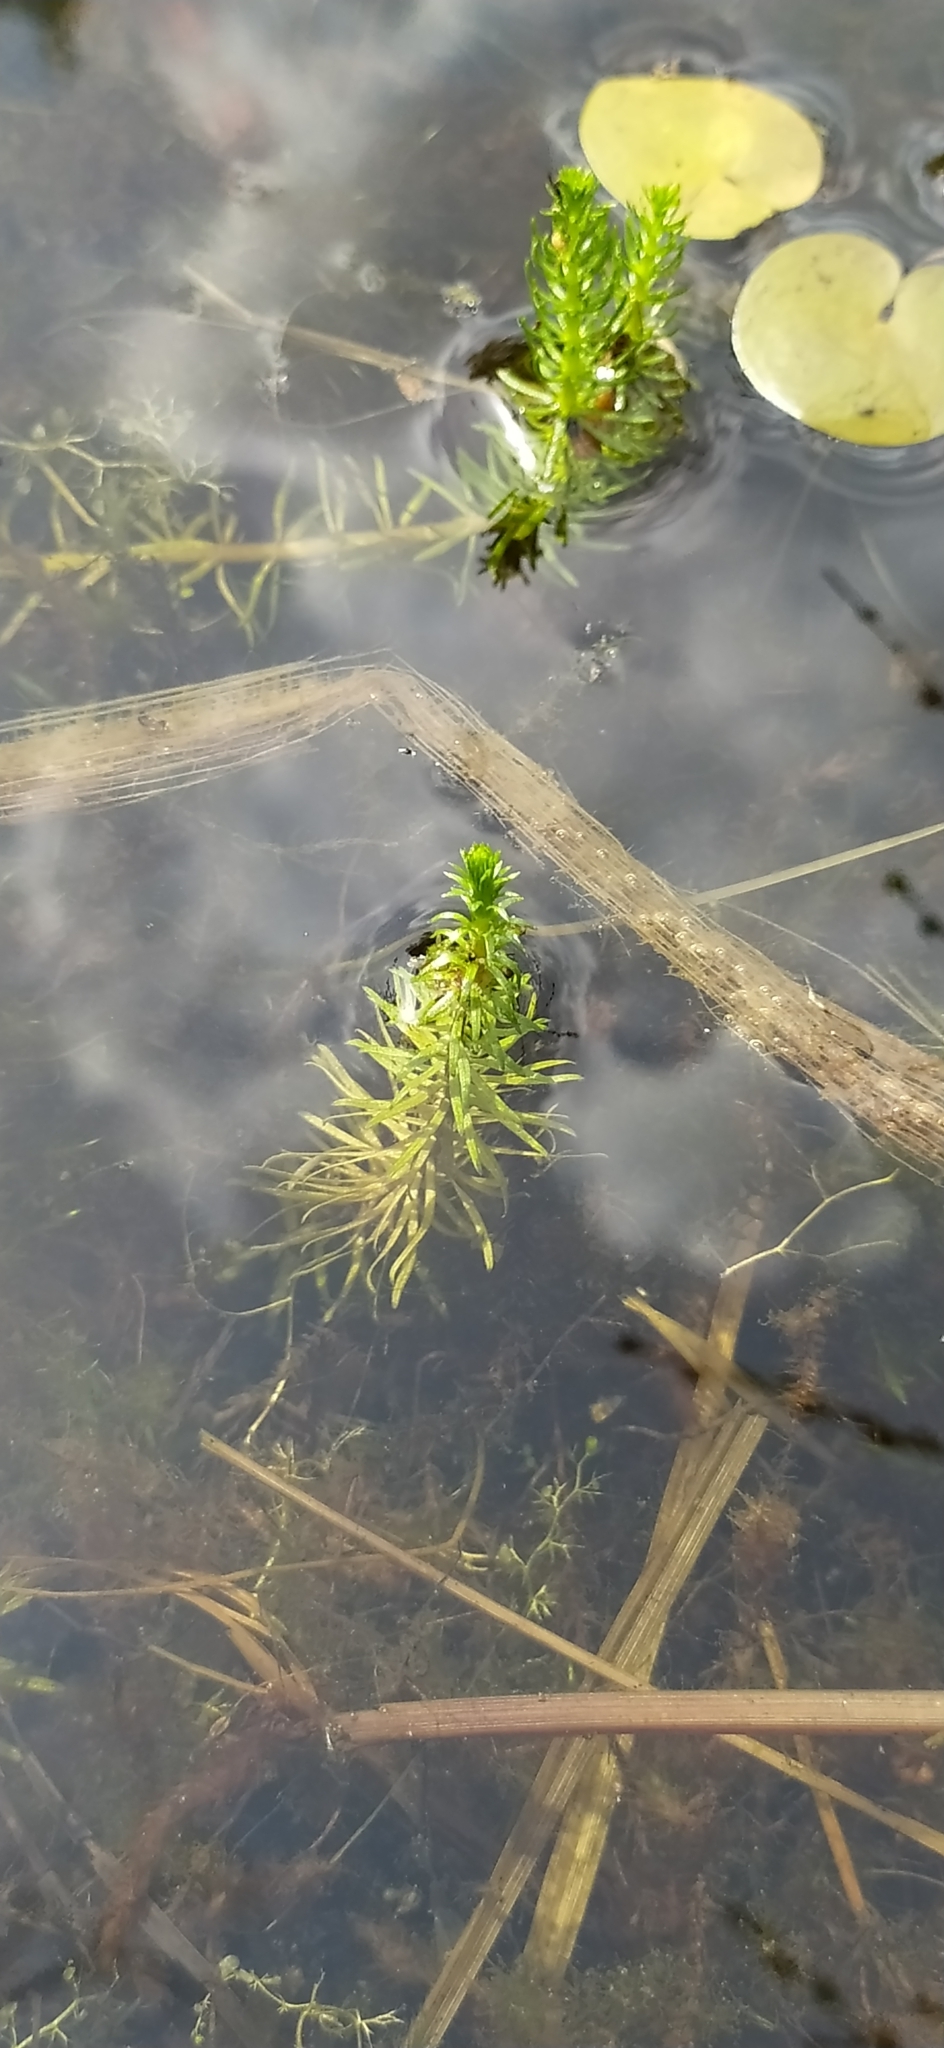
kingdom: Plantae
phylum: Tracheophyta
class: Magnoliopsida
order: Lamiales
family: Plantaginaceae
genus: Hippuris
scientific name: Hippuris vulgaris
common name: Mare's-tail
